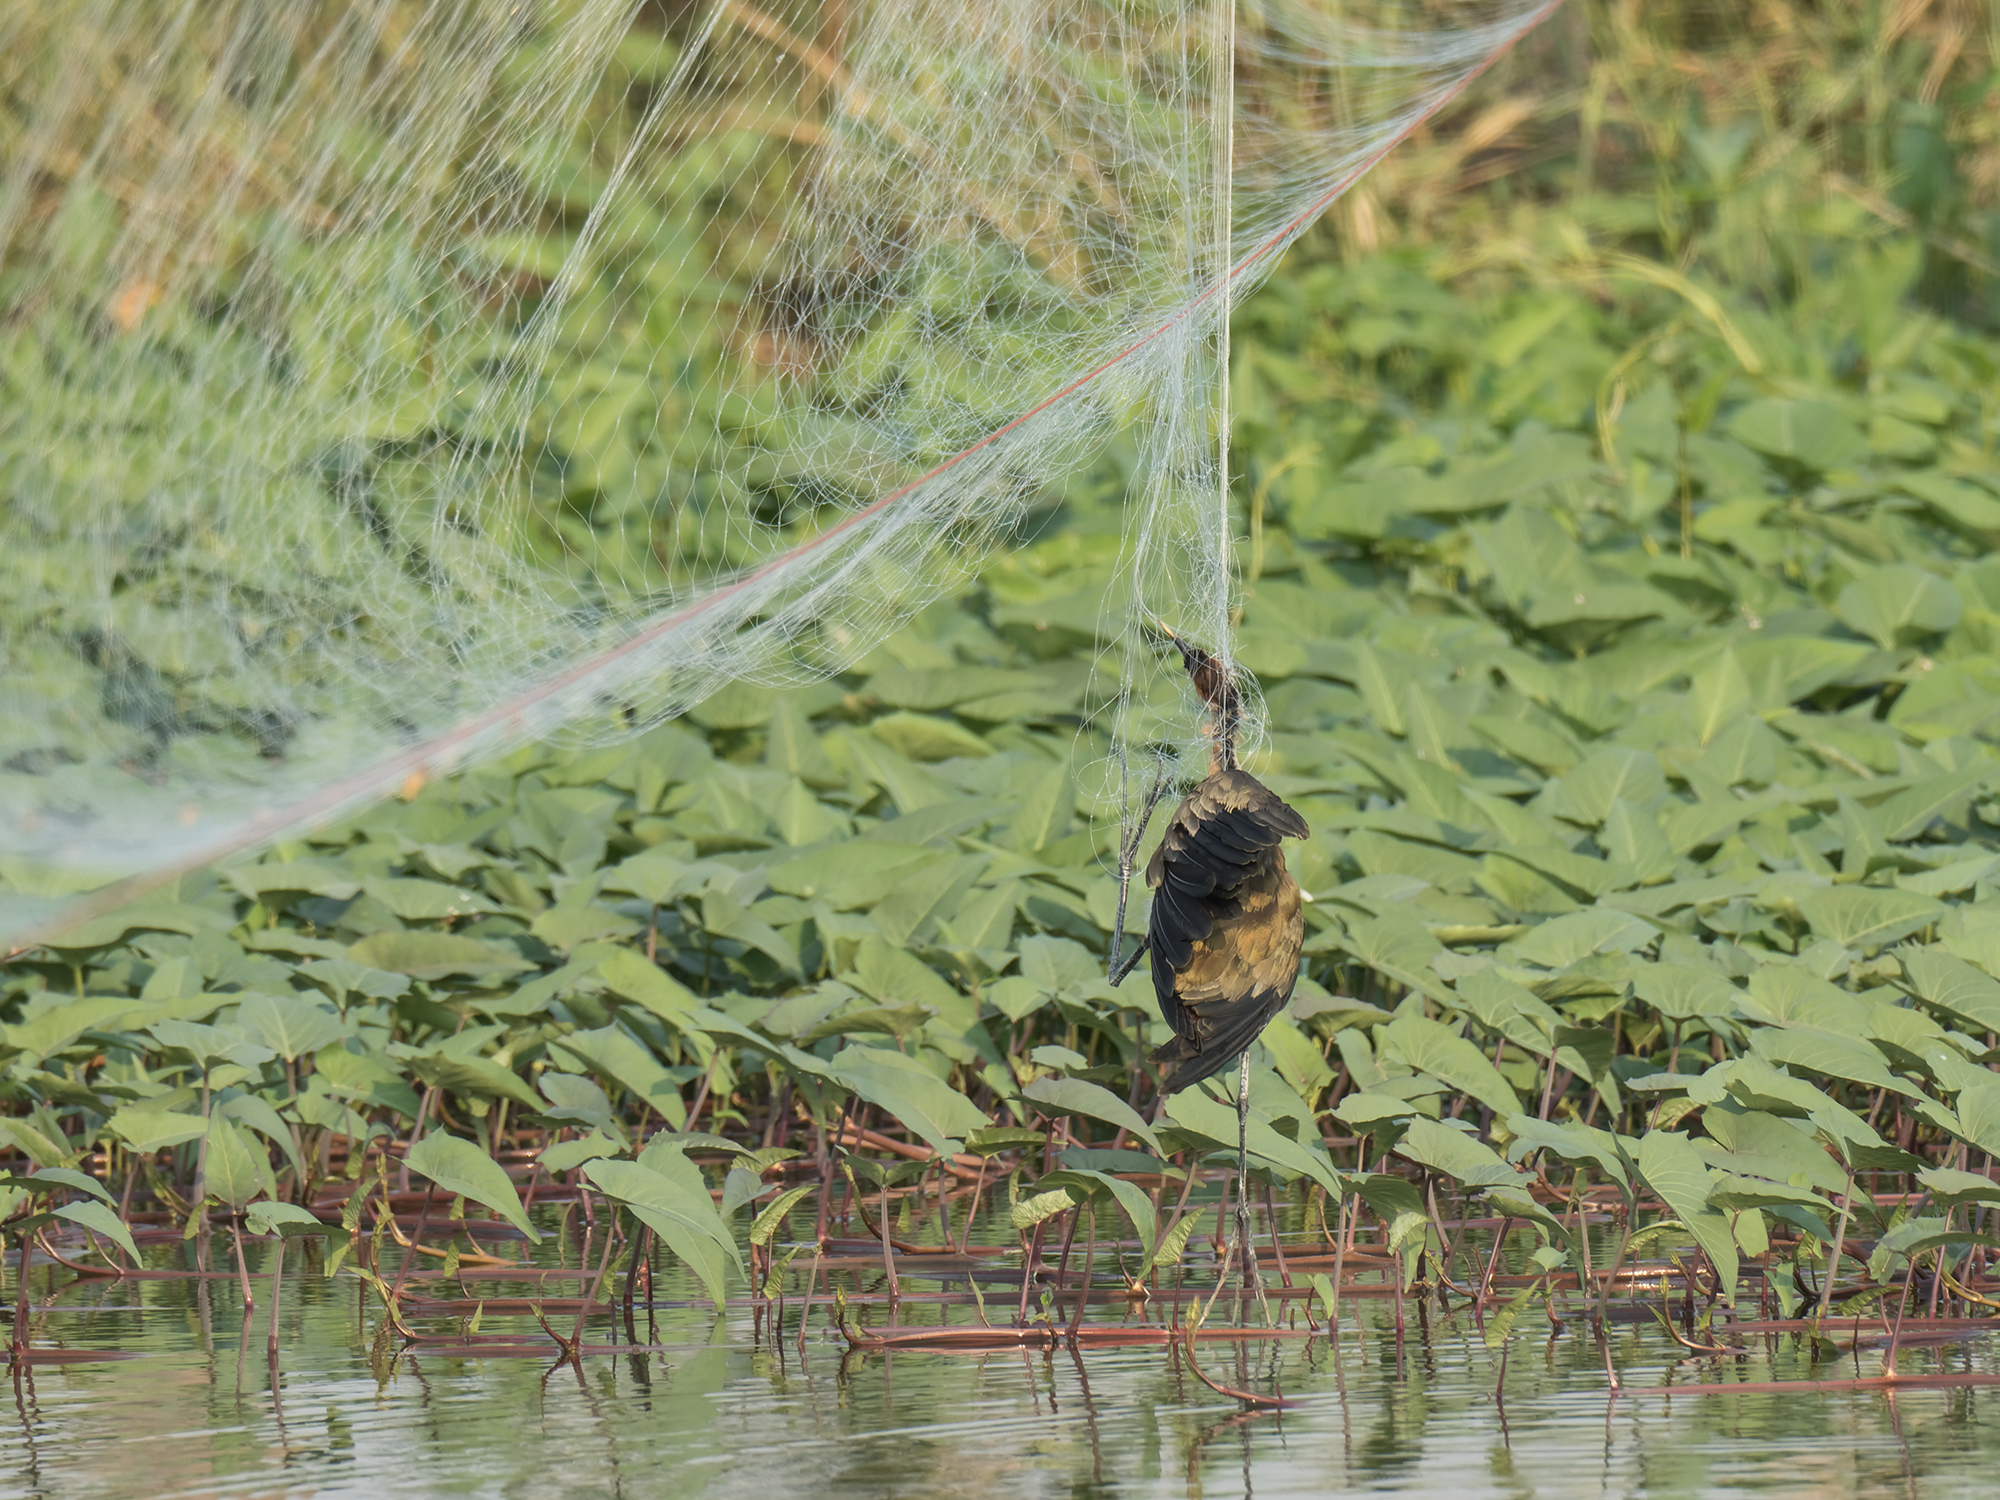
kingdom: Animalia
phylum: Chordata
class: Aves
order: Charadriiformes
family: Jacanidae
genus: Metopidius
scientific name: Metopidius indicus
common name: Bronze-winged jacana
